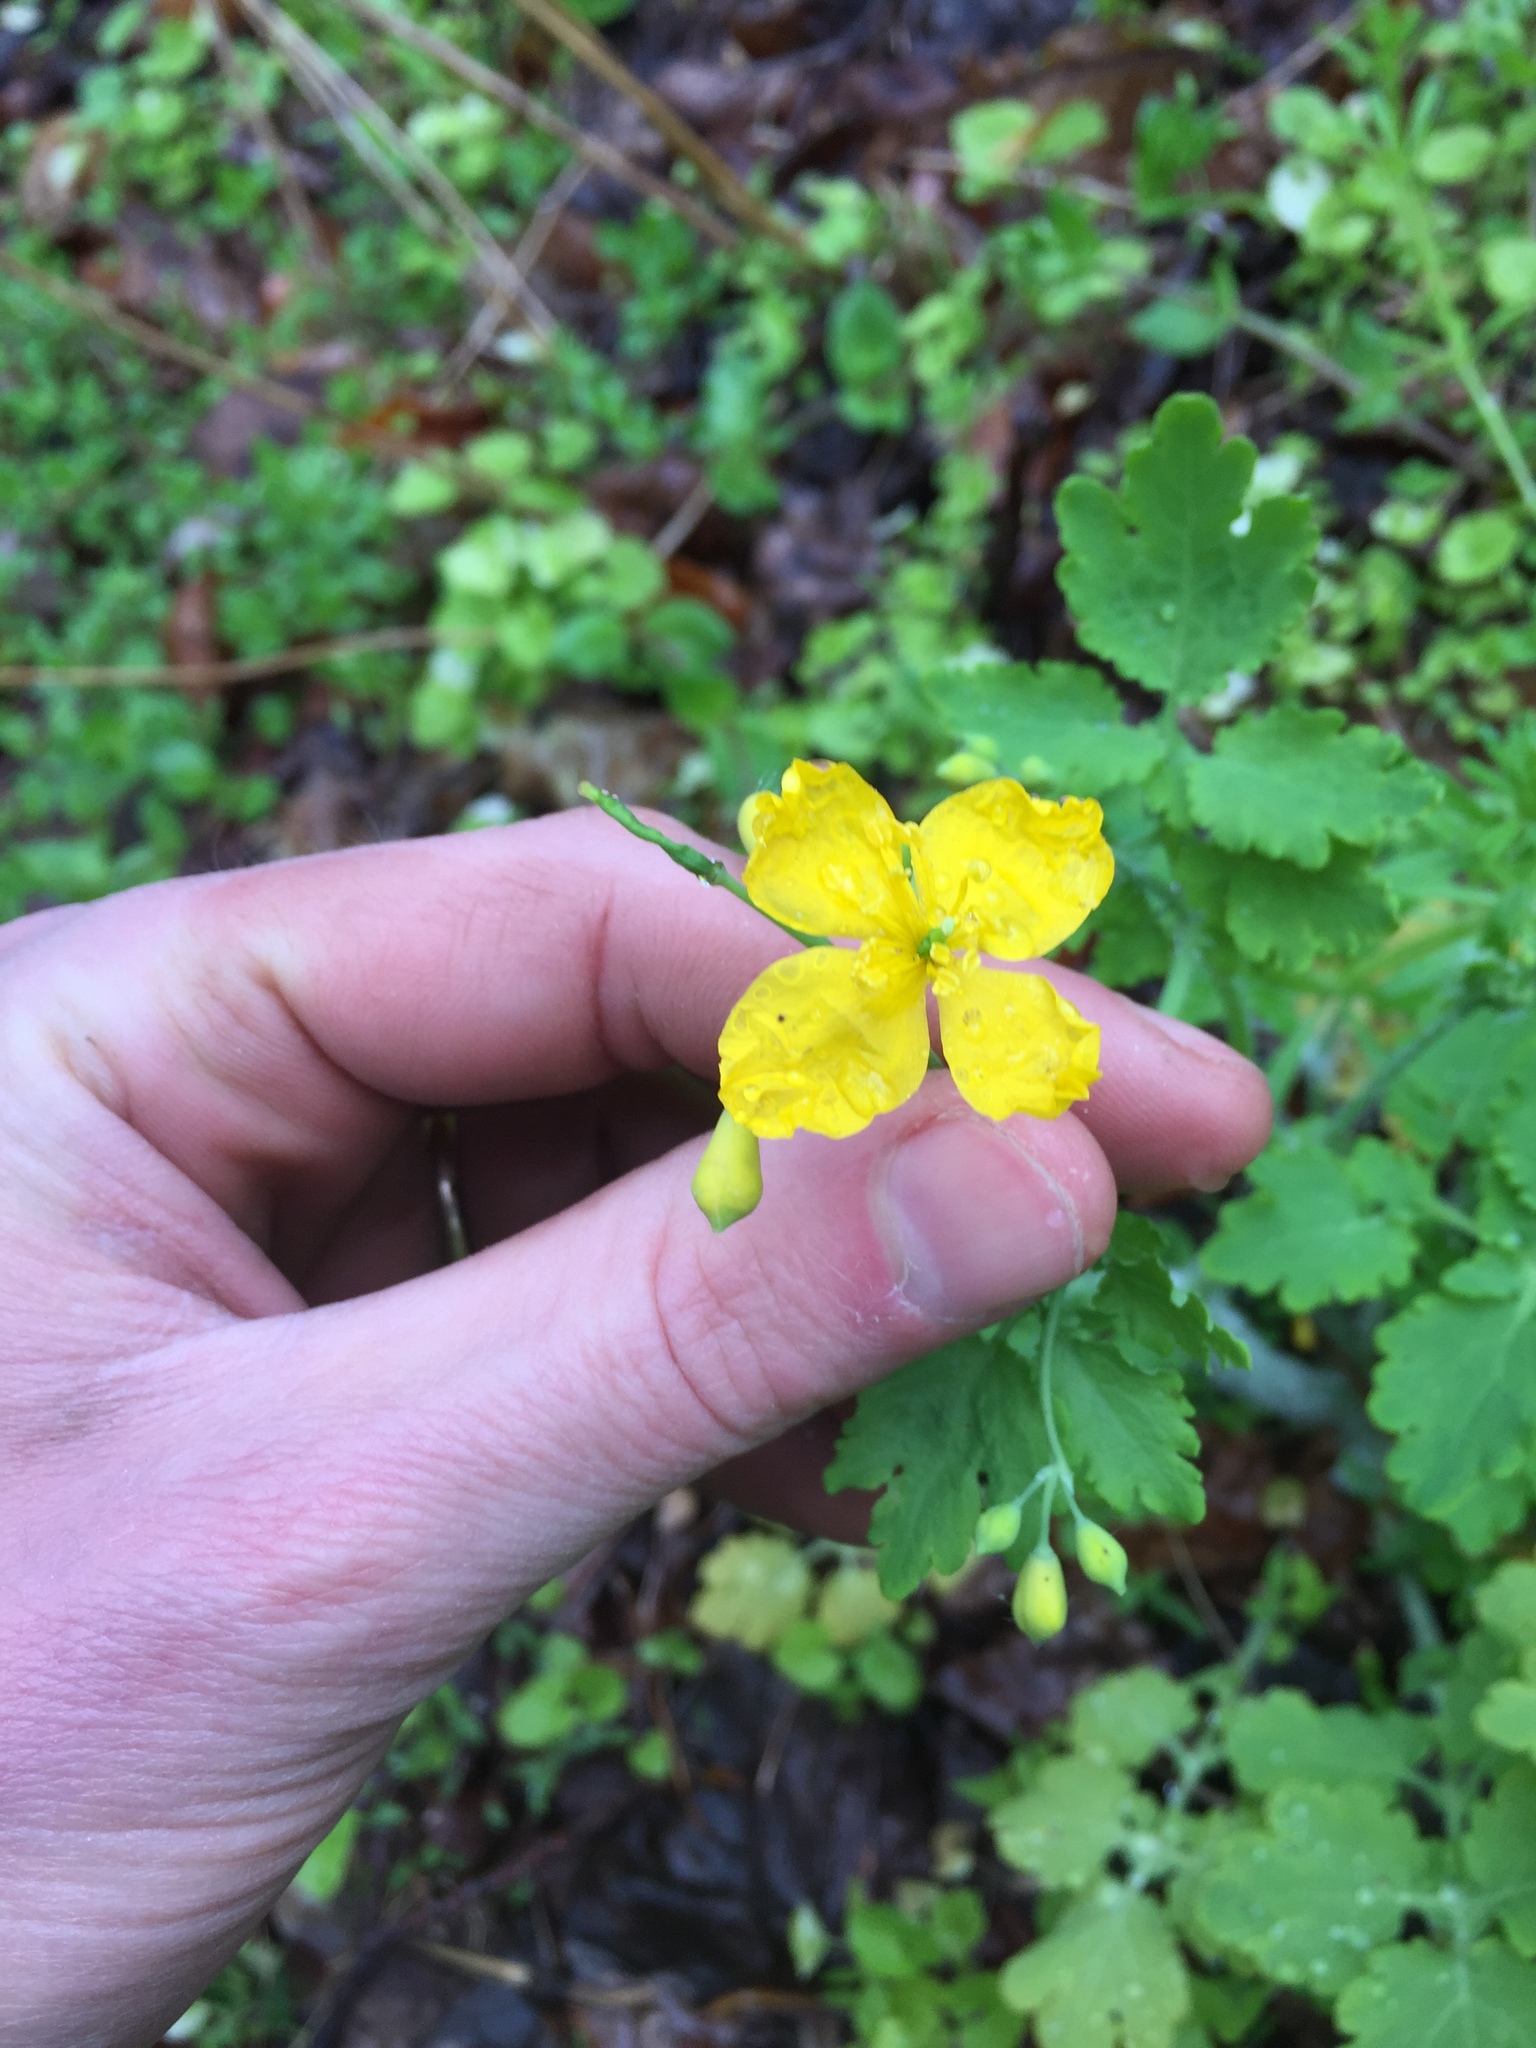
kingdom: Plantae
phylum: Tracheophyta
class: Magnoliopsida
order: Ranunculales
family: Papaveraceae
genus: Chelidonium
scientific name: Chelidonium majus
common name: Greater celandine
